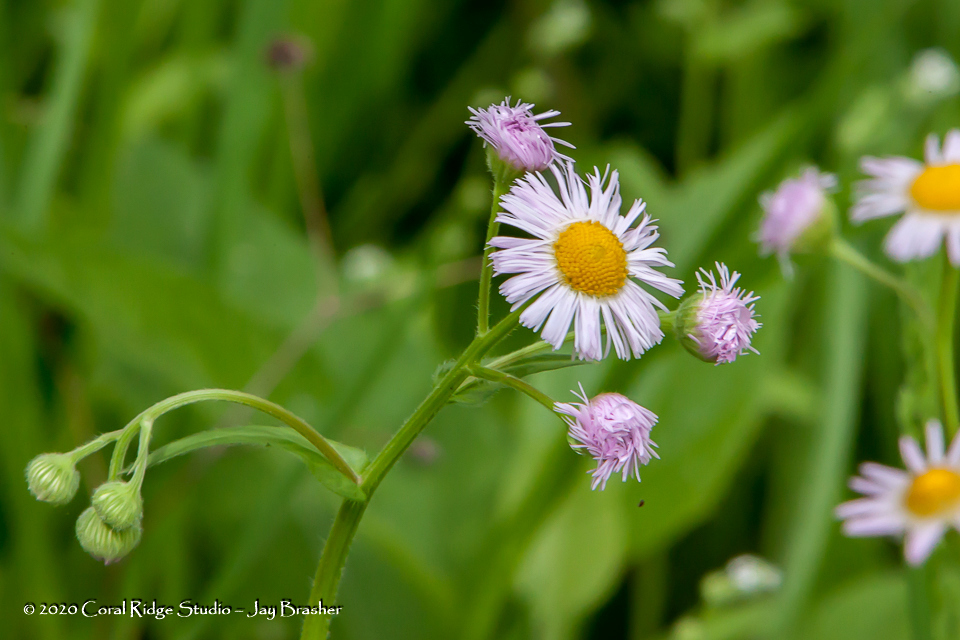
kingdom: Plantae
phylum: Tracheophyta
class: Magnoliopsida
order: Asterales
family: Asteraceae
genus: Erigeron
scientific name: Erigeron philadelphicus
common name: Robin's-plantain
